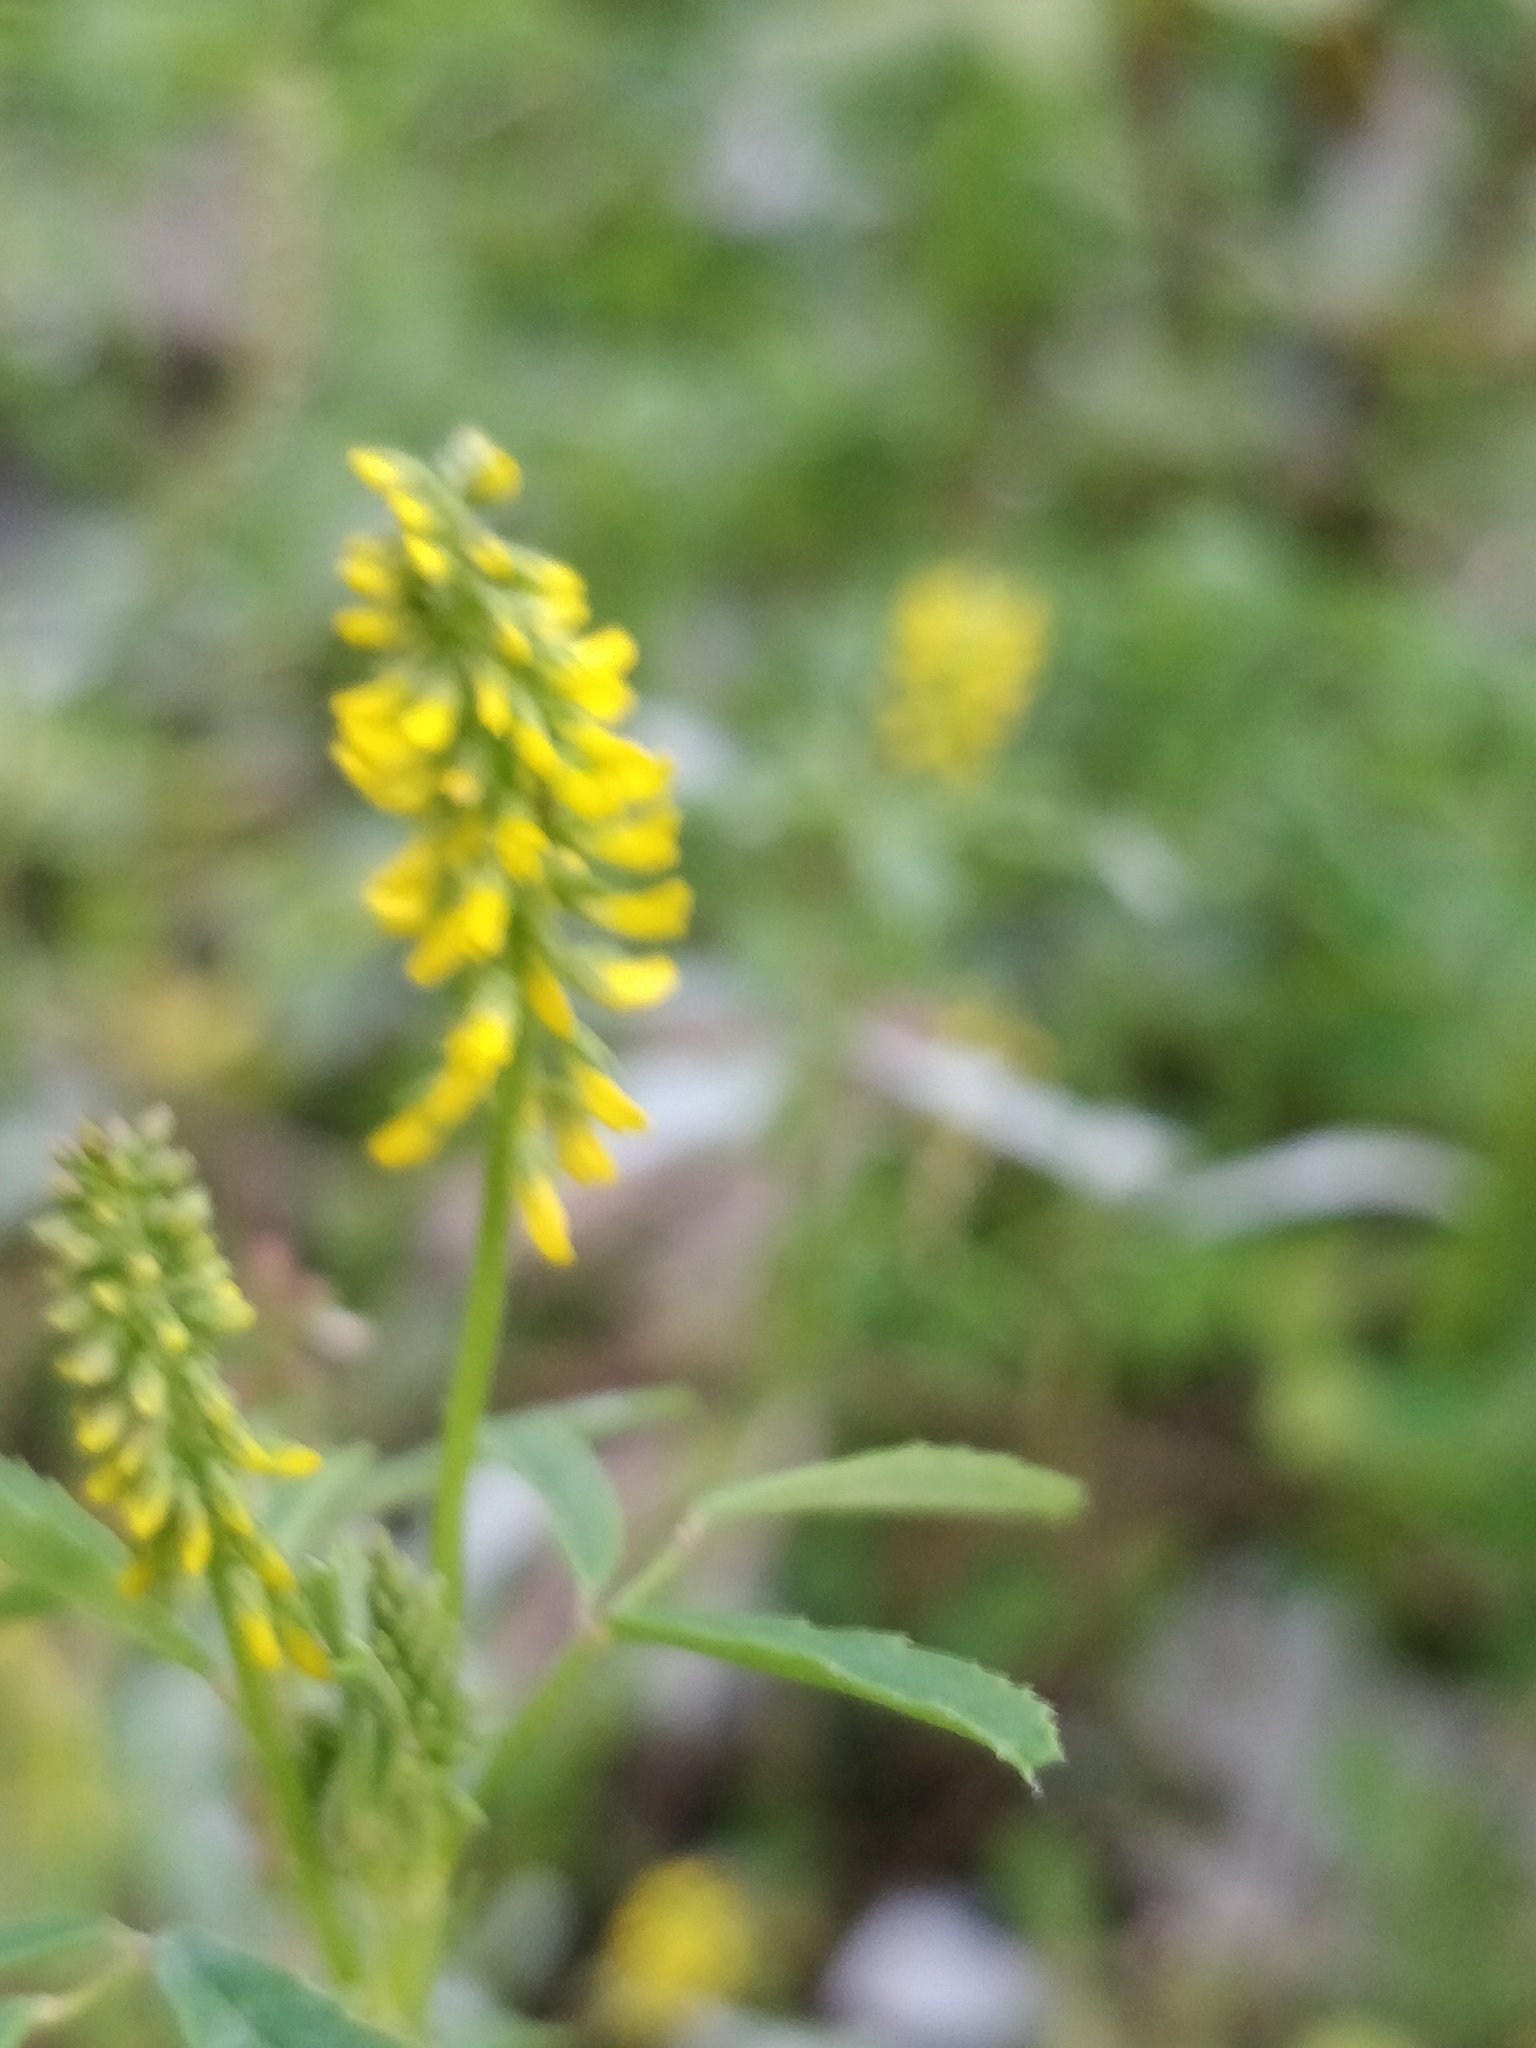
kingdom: Plantae
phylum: Tracheophyta
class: Magnoliopsida
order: Fabales
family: Fabaceae
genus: Melilotus
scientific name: Melilotus indicus
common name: Small melilot
